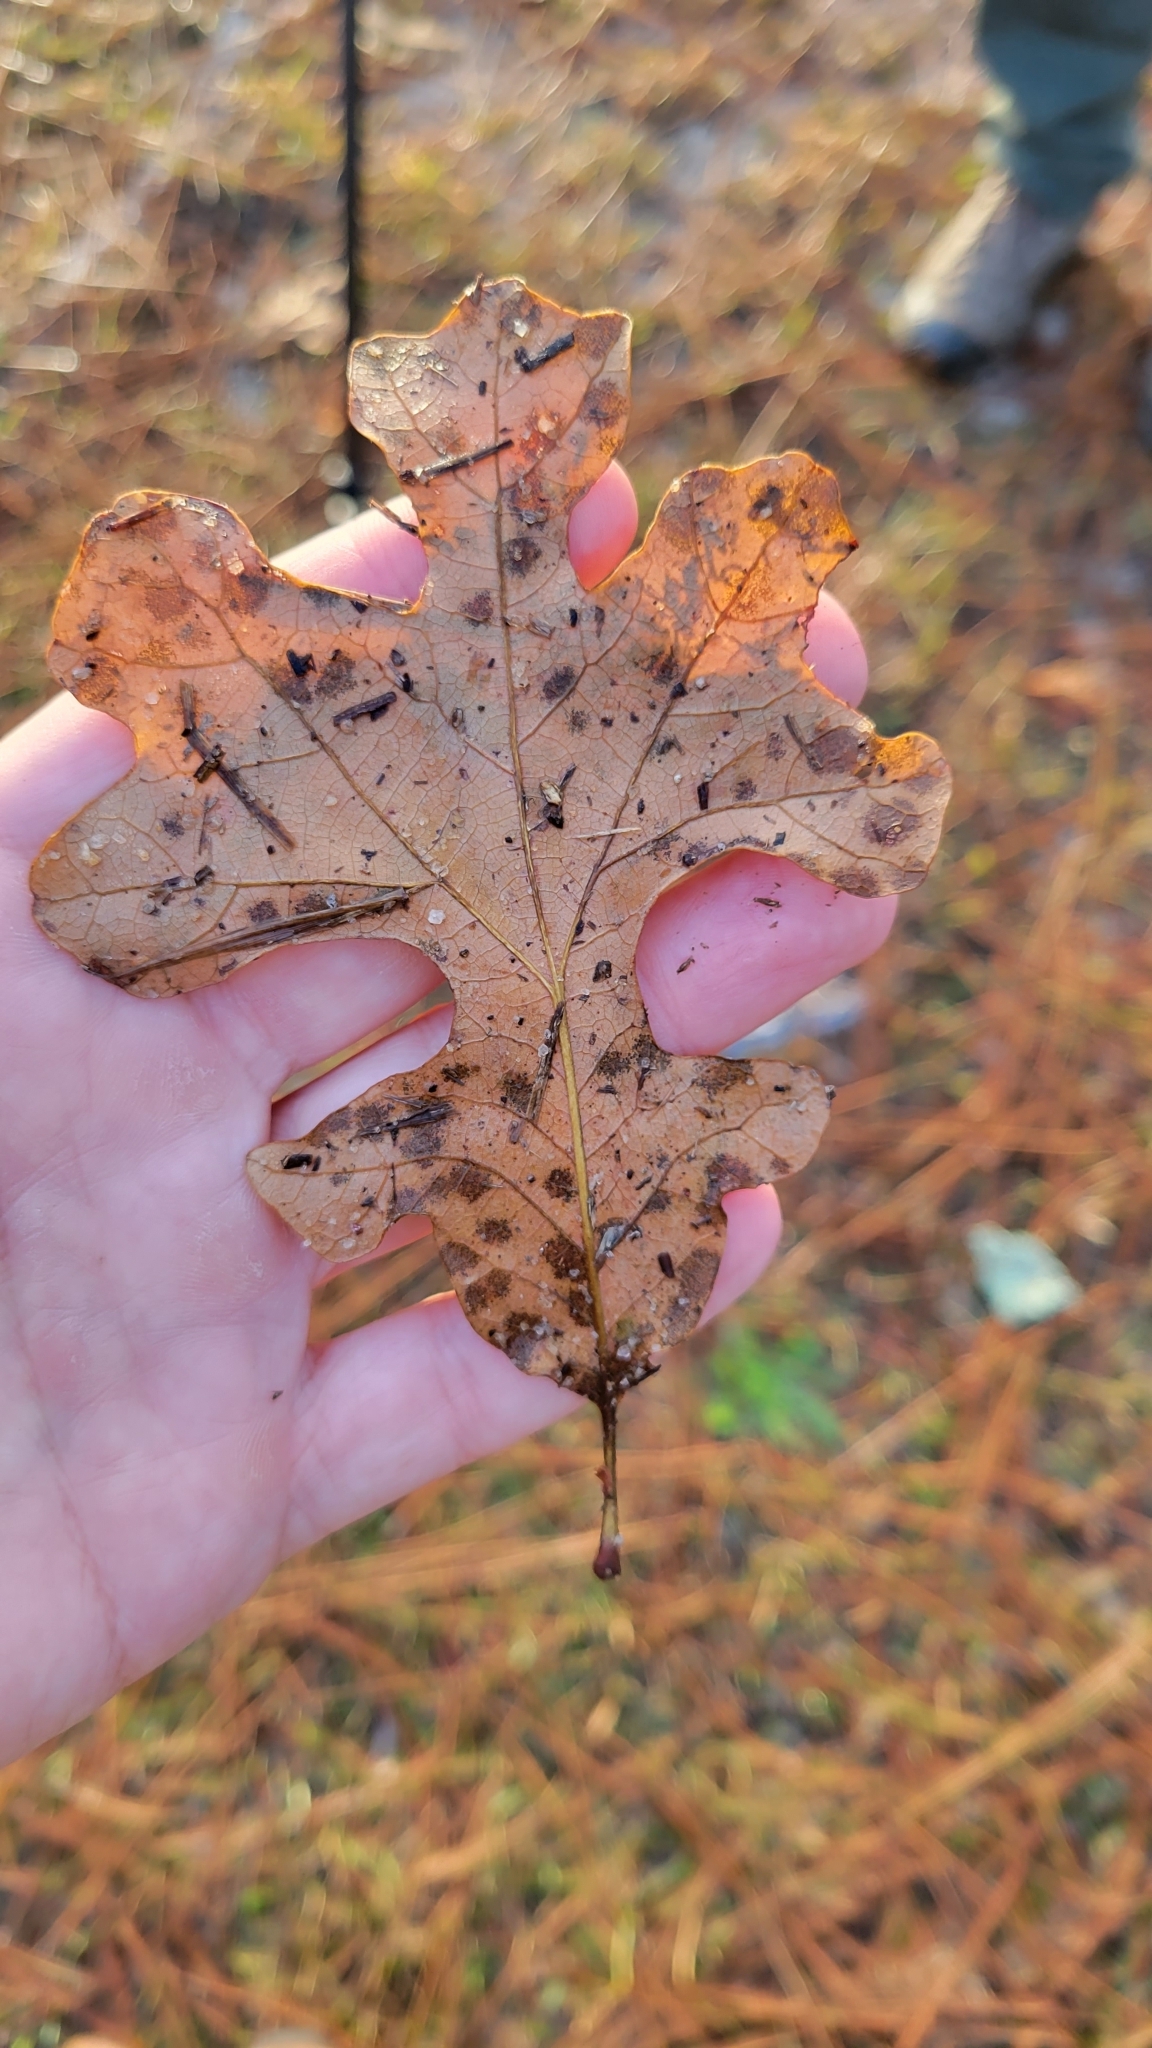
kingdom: Plantae
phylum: Tracheophyta
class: Magnoliopsida
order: Fagales
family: Fagaceae
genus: Quercus
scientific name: Quercus stellata
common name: Post oak
